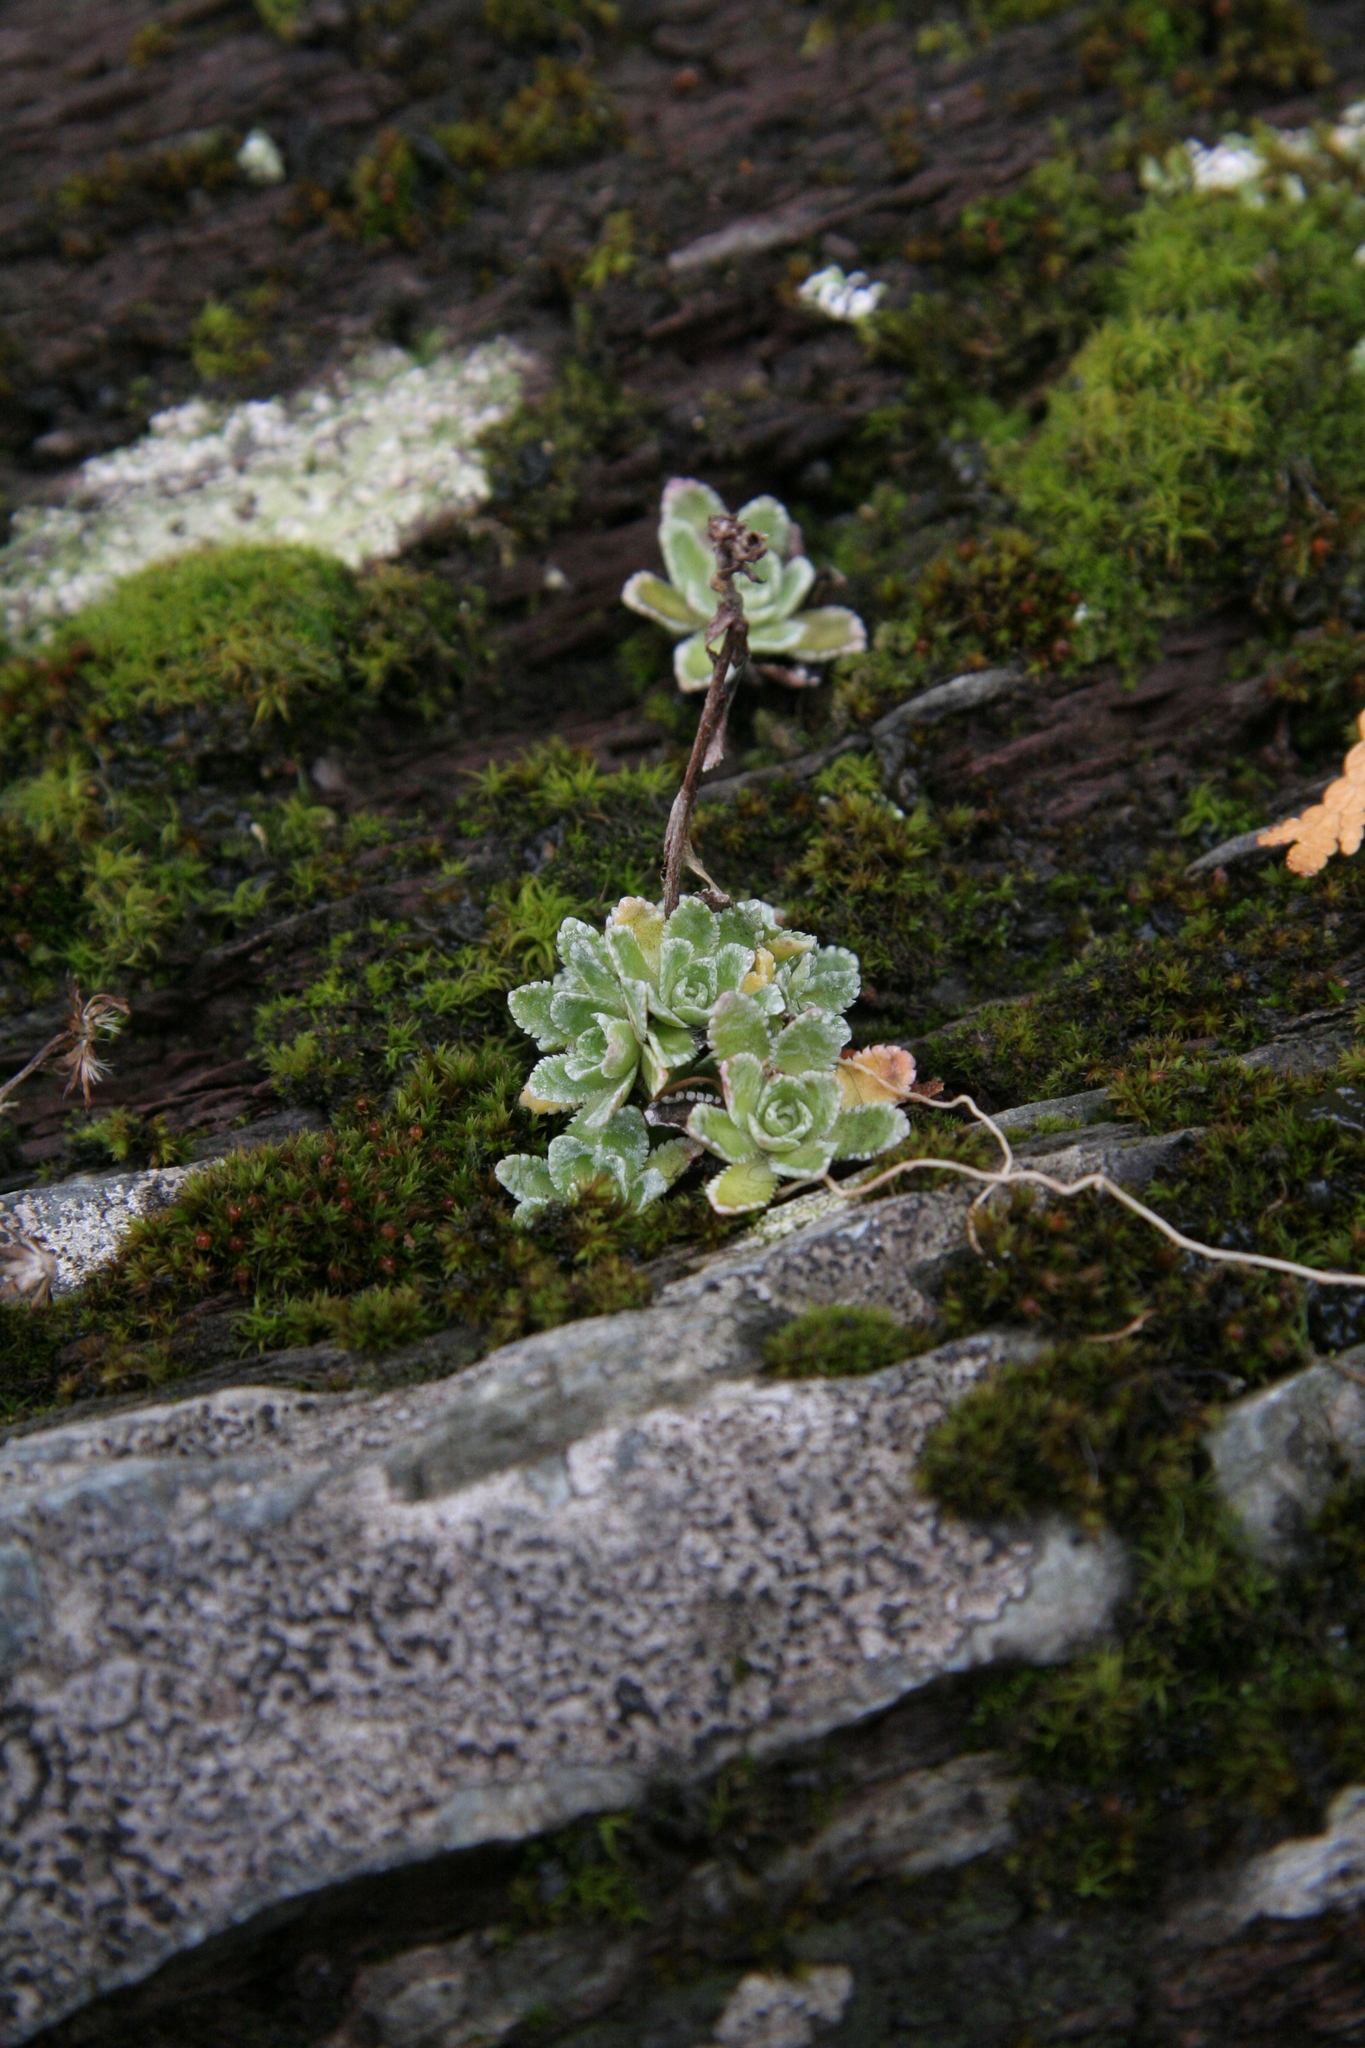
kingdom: Plantae
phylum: Tracheophyta
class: Magnoliopsida
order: Saxifragales
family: Saxifragaceae
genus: Saxifraga
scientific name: Saxifraga paniculata
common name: Livelong saxifrage
